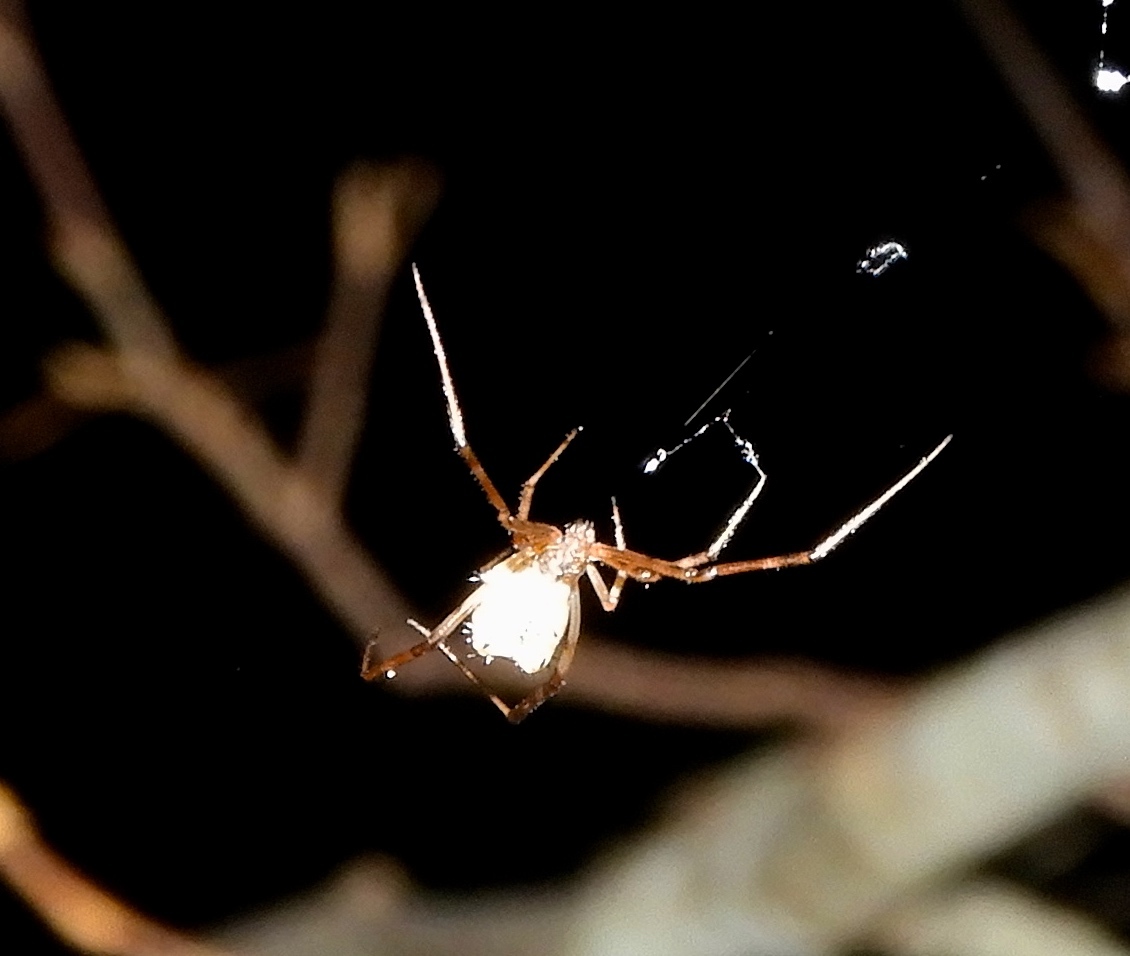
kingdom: Animalia
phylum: Arthropoda
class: Arachnida
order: Araneae
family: Theridiidae
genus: Neopisinus
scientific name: Neopisinus cognatus
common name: Cobweb spiders
